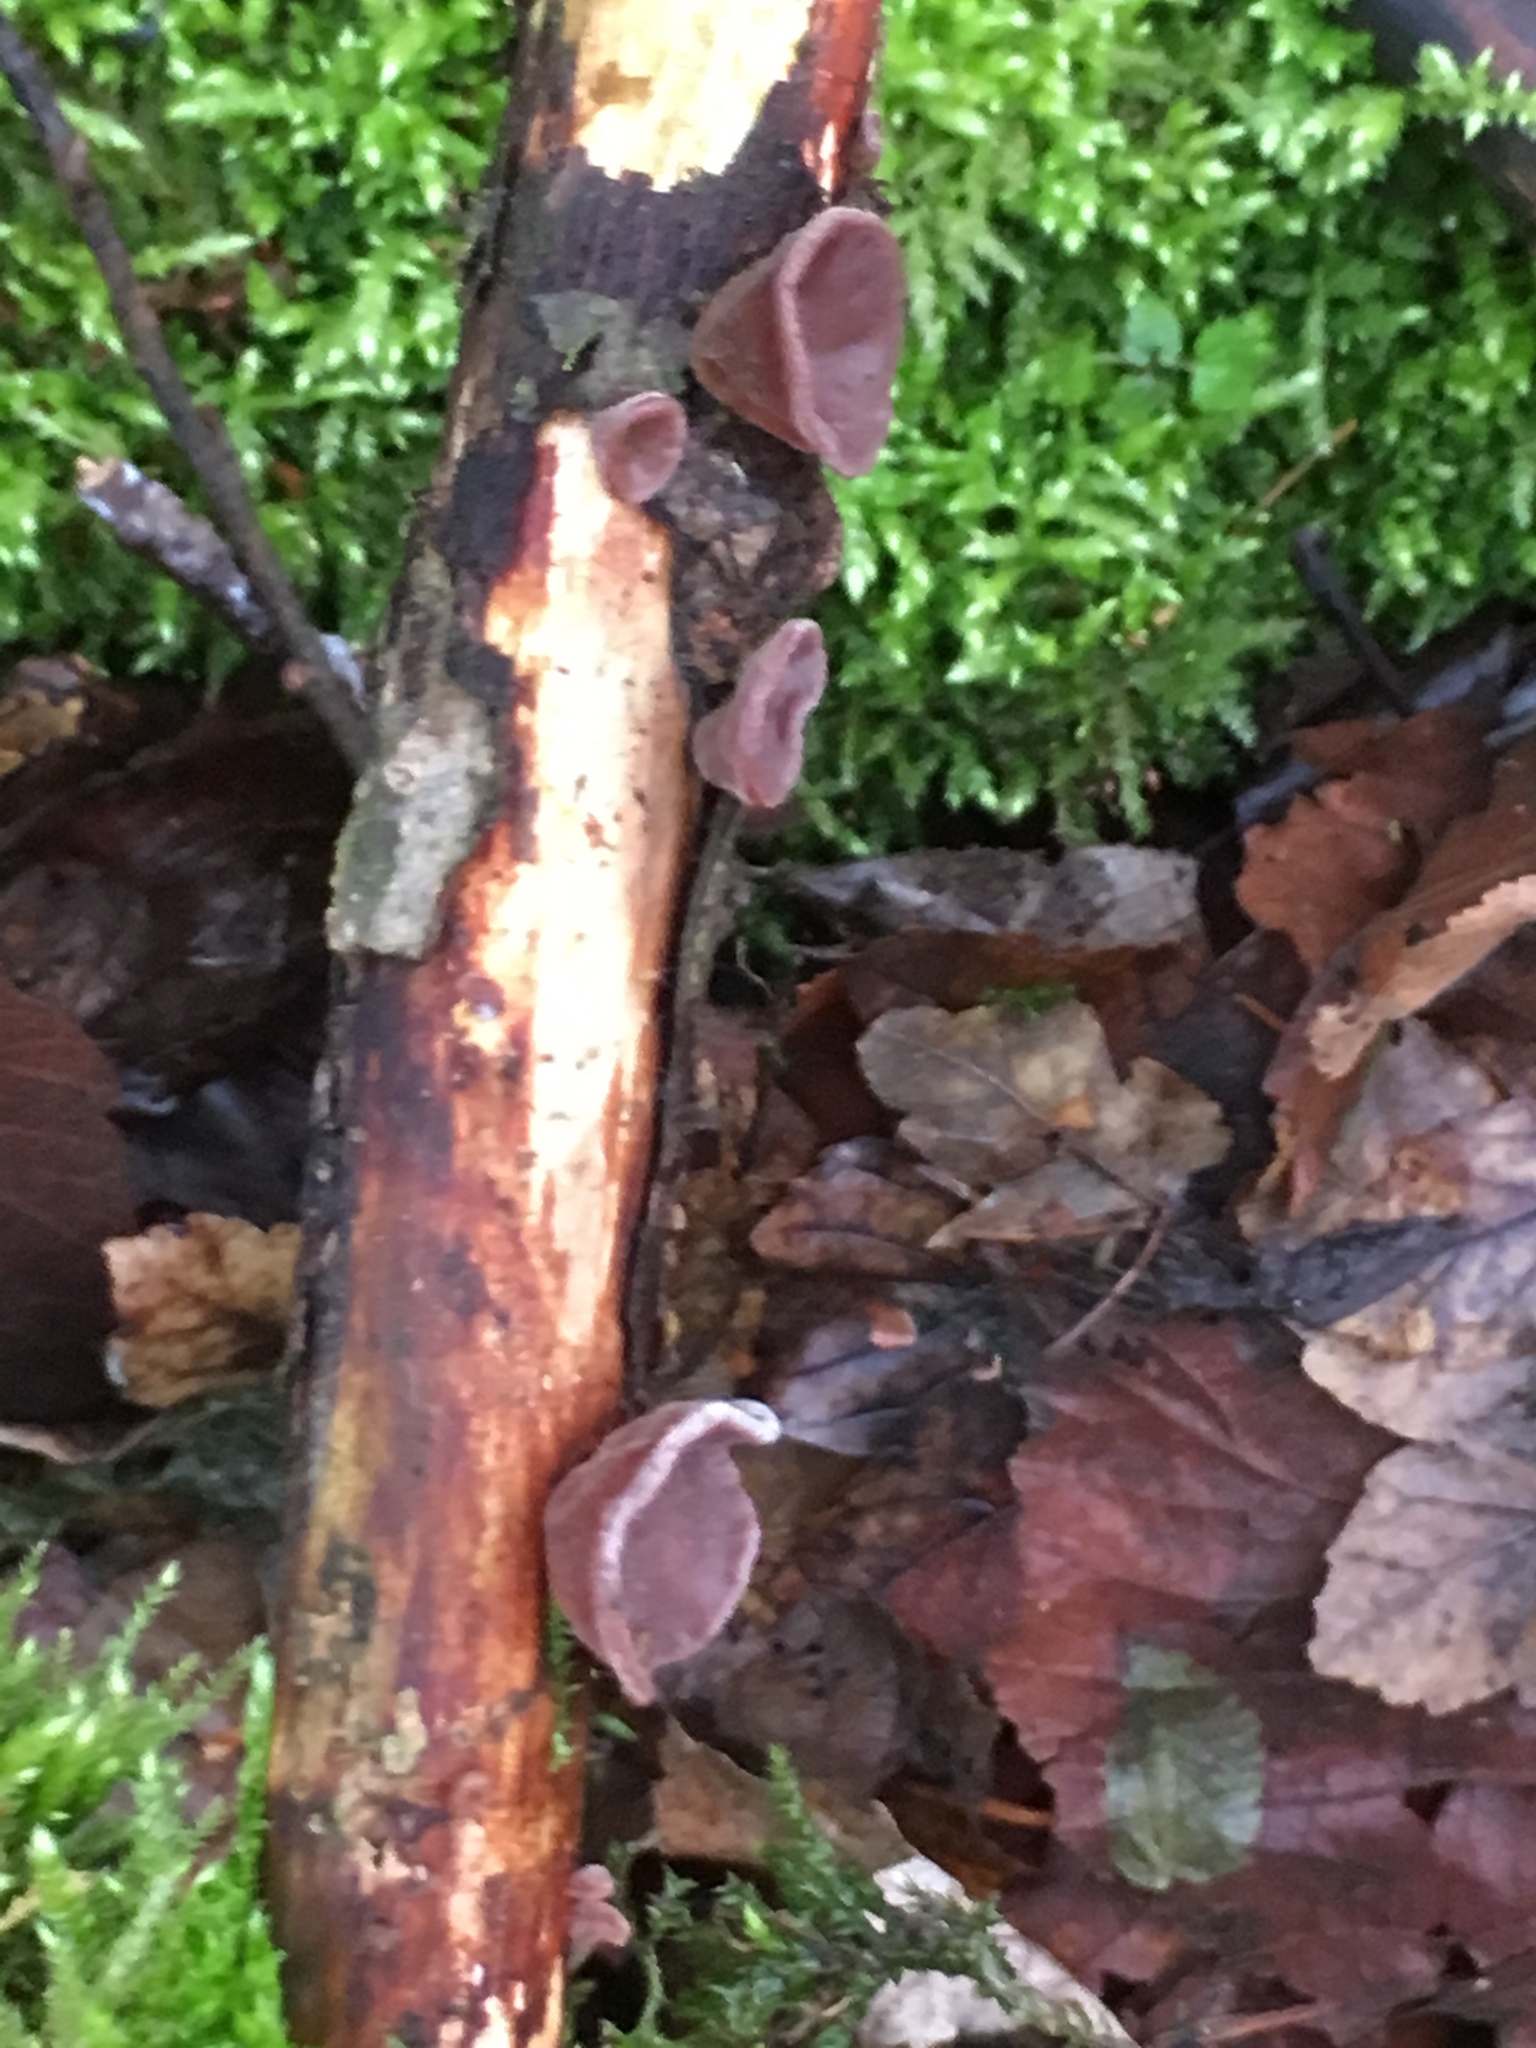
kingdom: Fungi
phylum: Basidiomycota
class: Agaricomycetes
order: Auriculariales
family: Auriculariaceae
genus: Auricularia
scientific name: Auricularia auricula-judae
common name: Jelly ear
